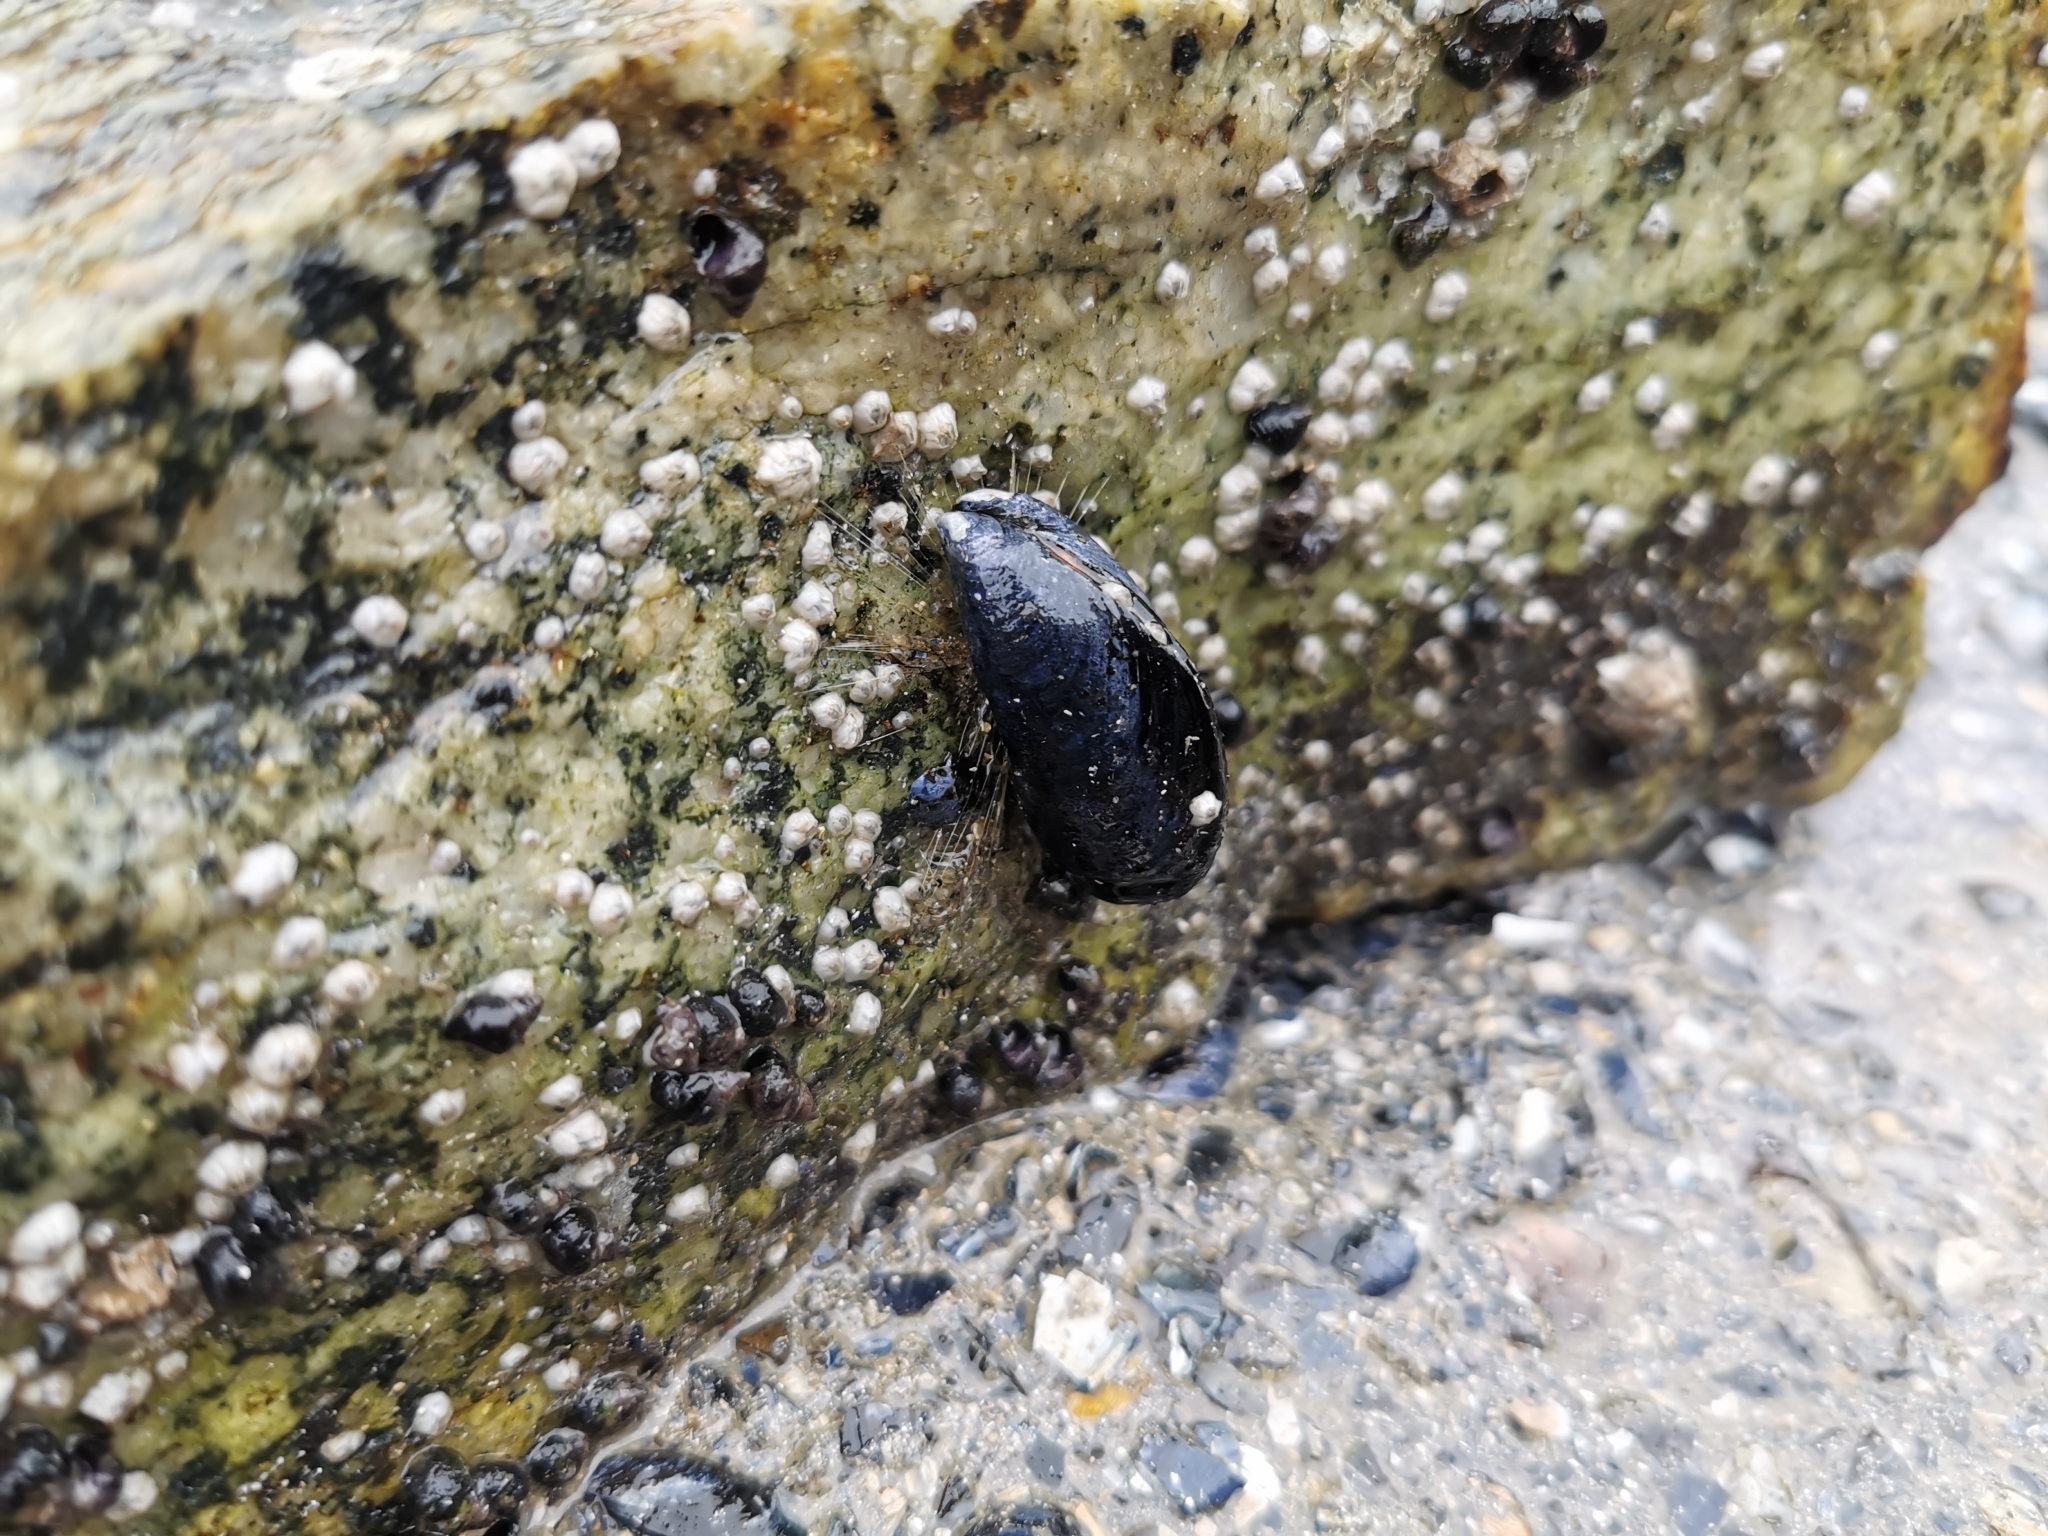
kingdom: Animalia
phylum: Mollusca
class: Bivalvia
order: Mytilida
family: Mytilidae
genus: Mytilus
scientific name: Mytilus
